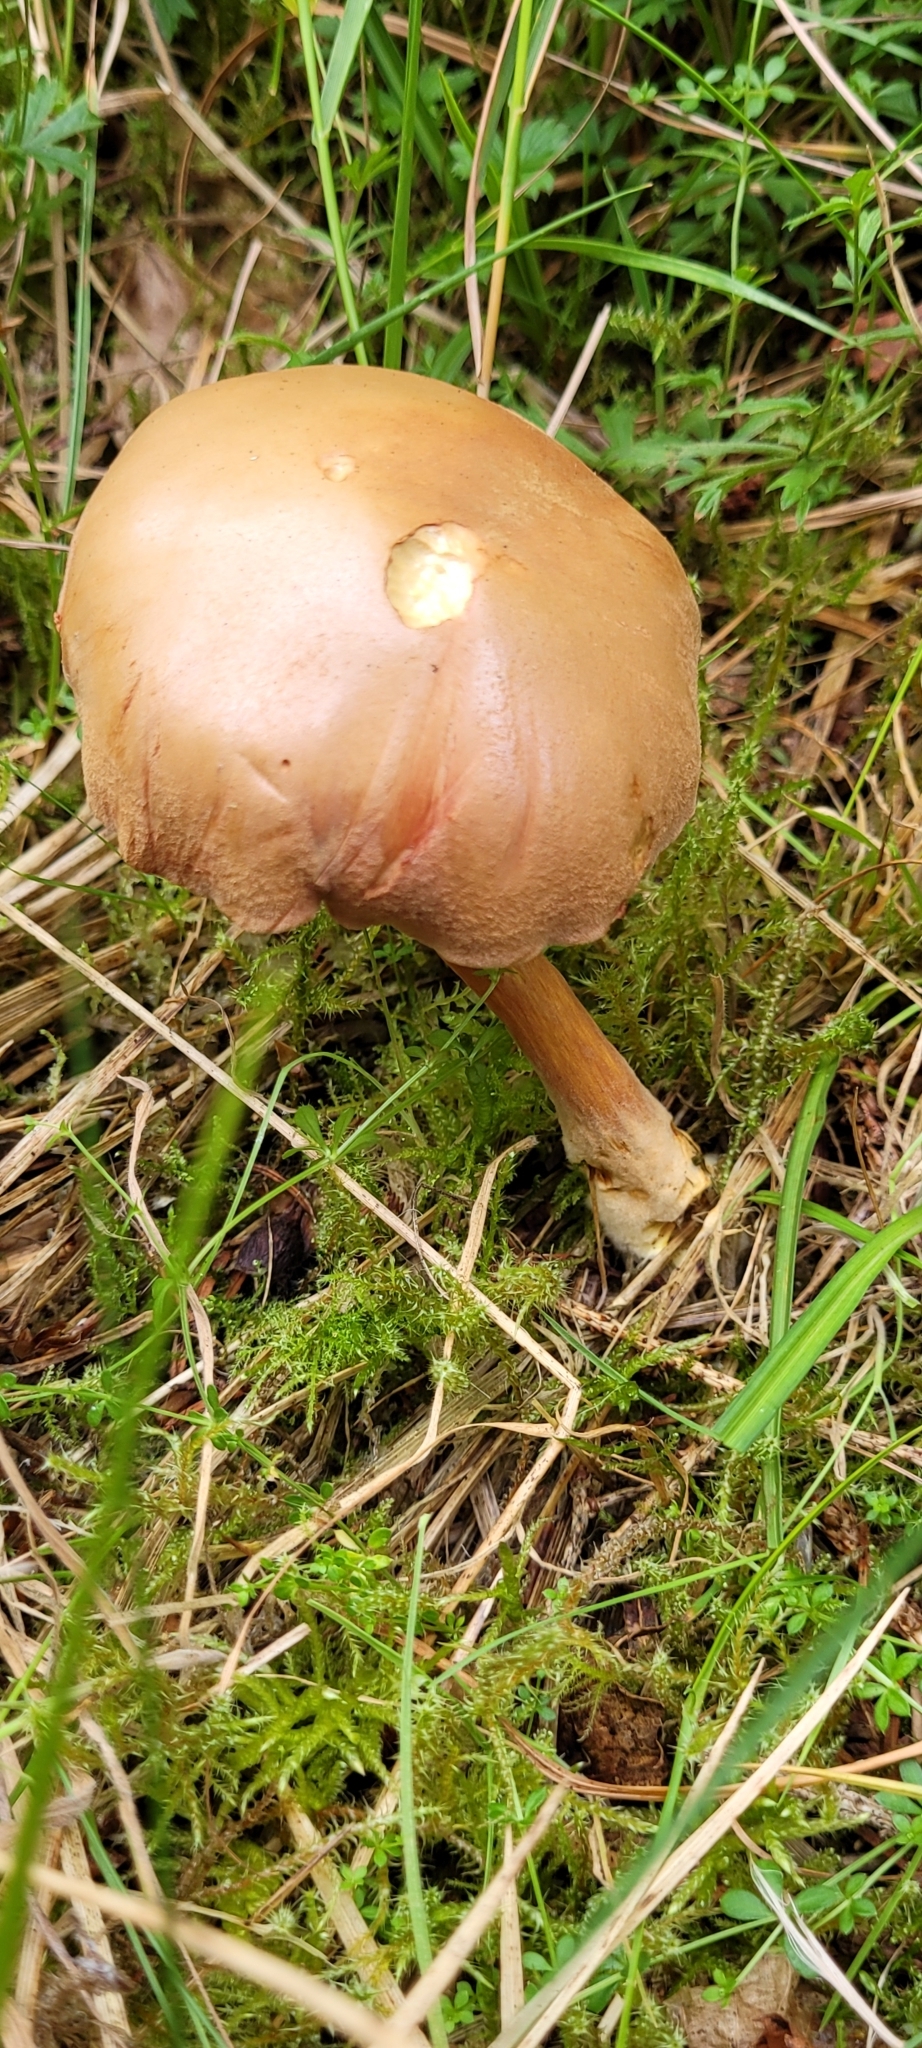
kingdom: Fungi
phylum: Basidiomycota
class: Agaricomycetes
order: Boletales
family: Boletaceae
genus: Chalciporus
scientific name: Chalciporus piperatus
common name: Peppery bolete
